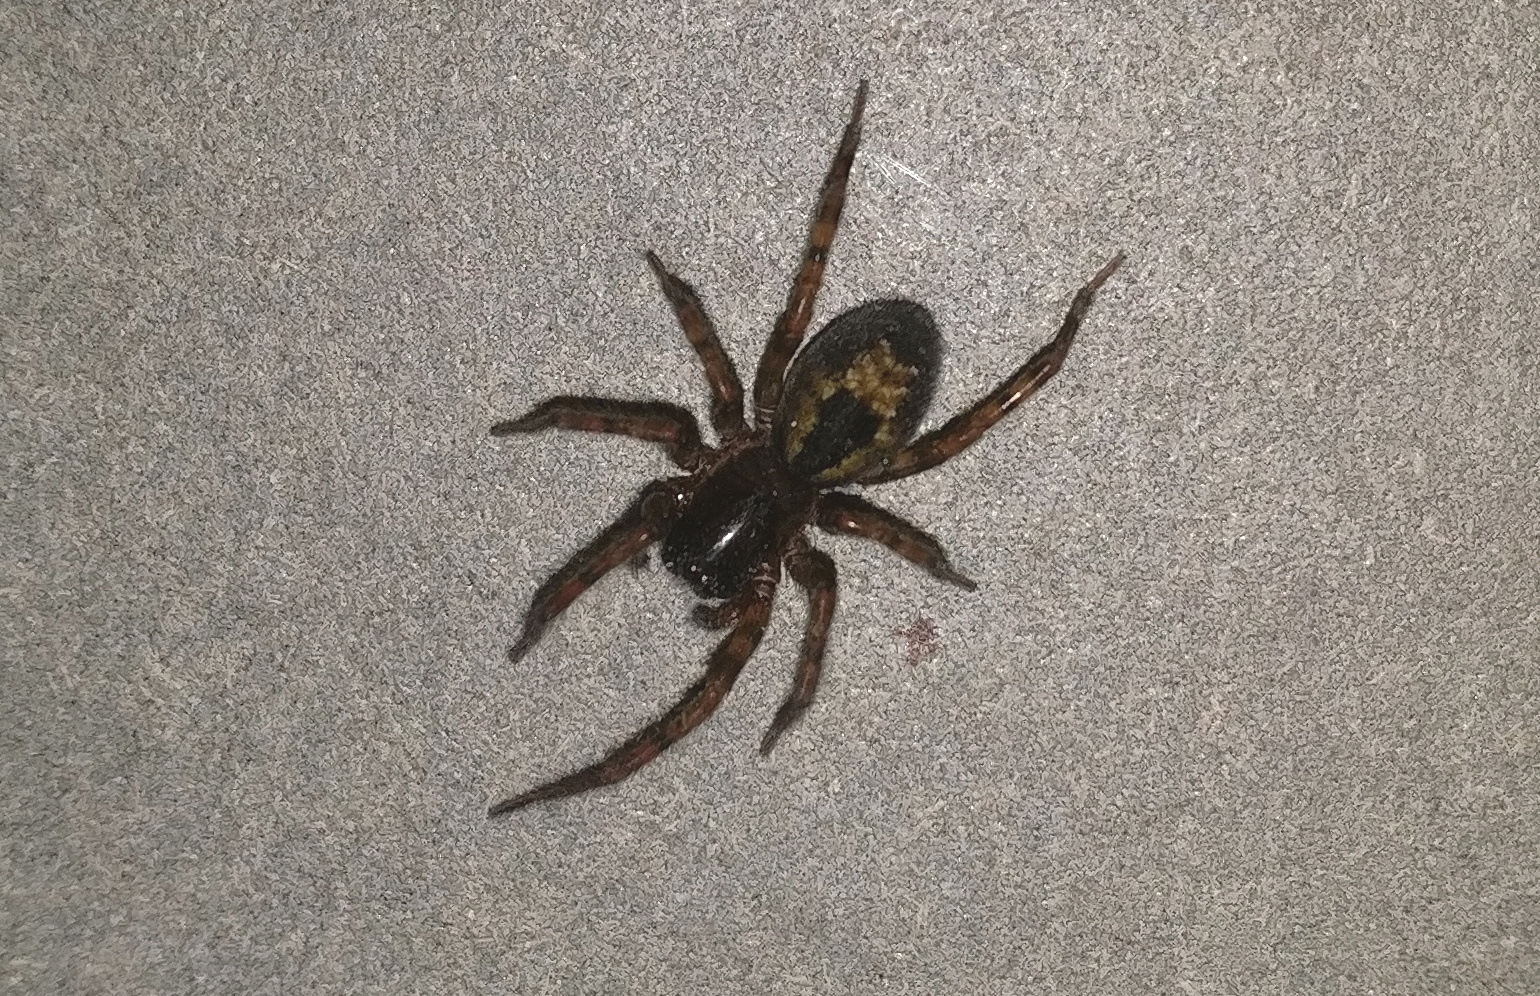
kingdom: Animalia
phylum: Arthropoda
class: Arachnida
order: Araneae
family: Amaurobiidae
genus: Amaurobius
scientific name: Amaurobius
